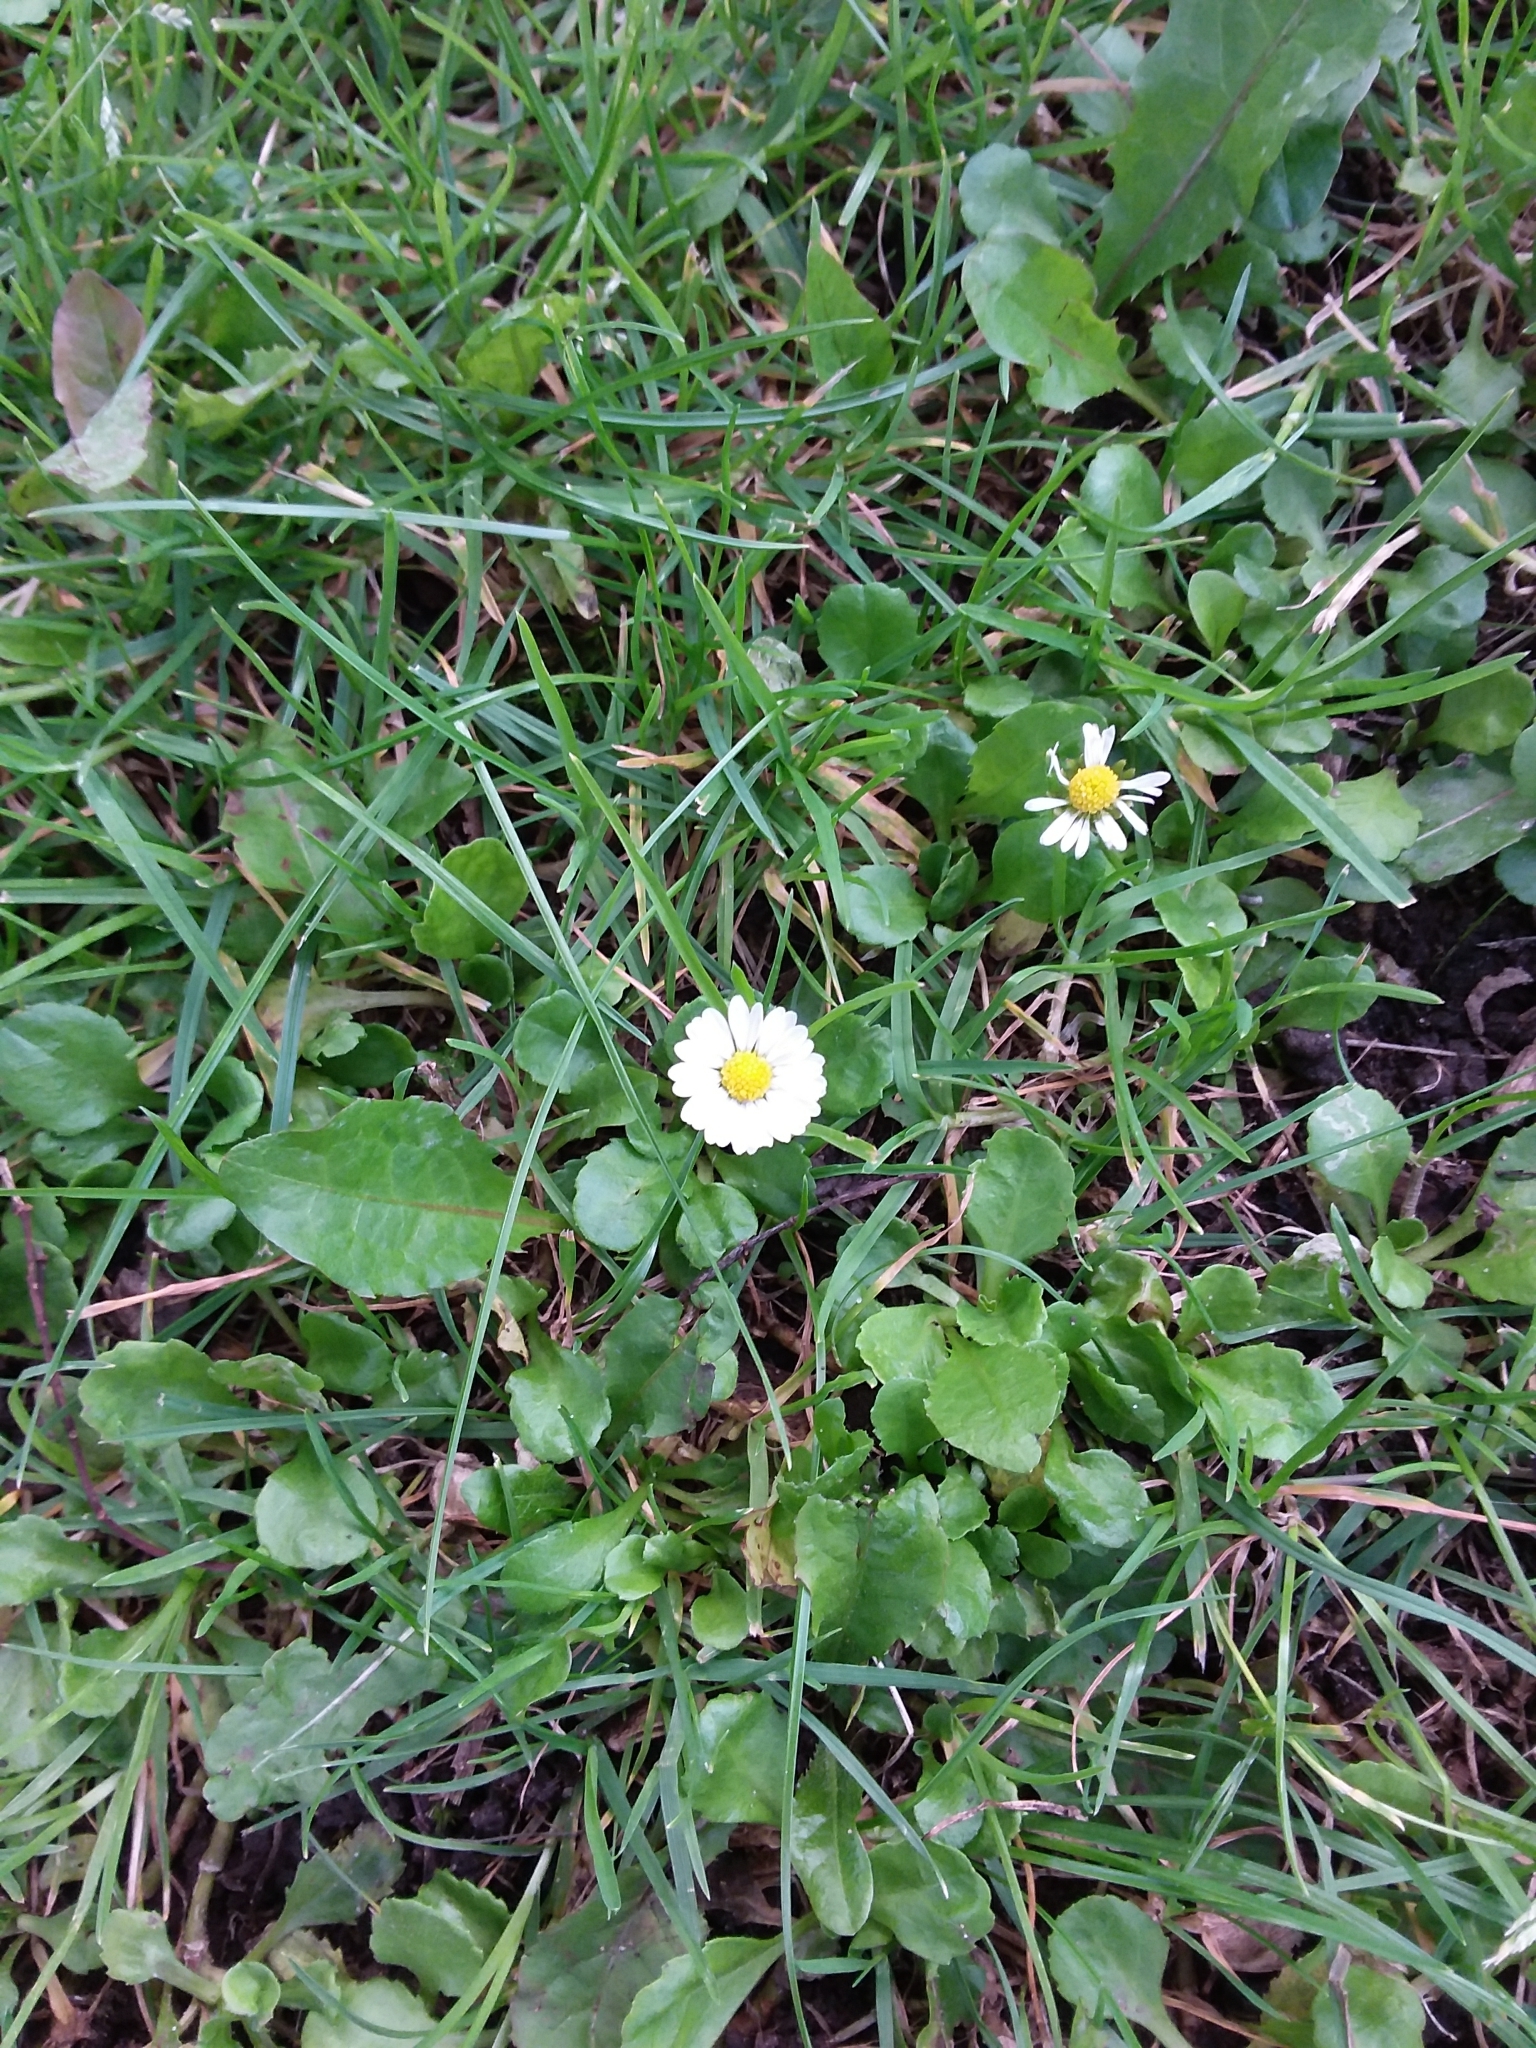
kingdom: Plantae
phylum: Tracheophyta
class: Magnoliopsida
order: Asterales
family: Asteraceae
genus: Bellis
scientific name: Bellis perennis
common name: Lawndaisy
